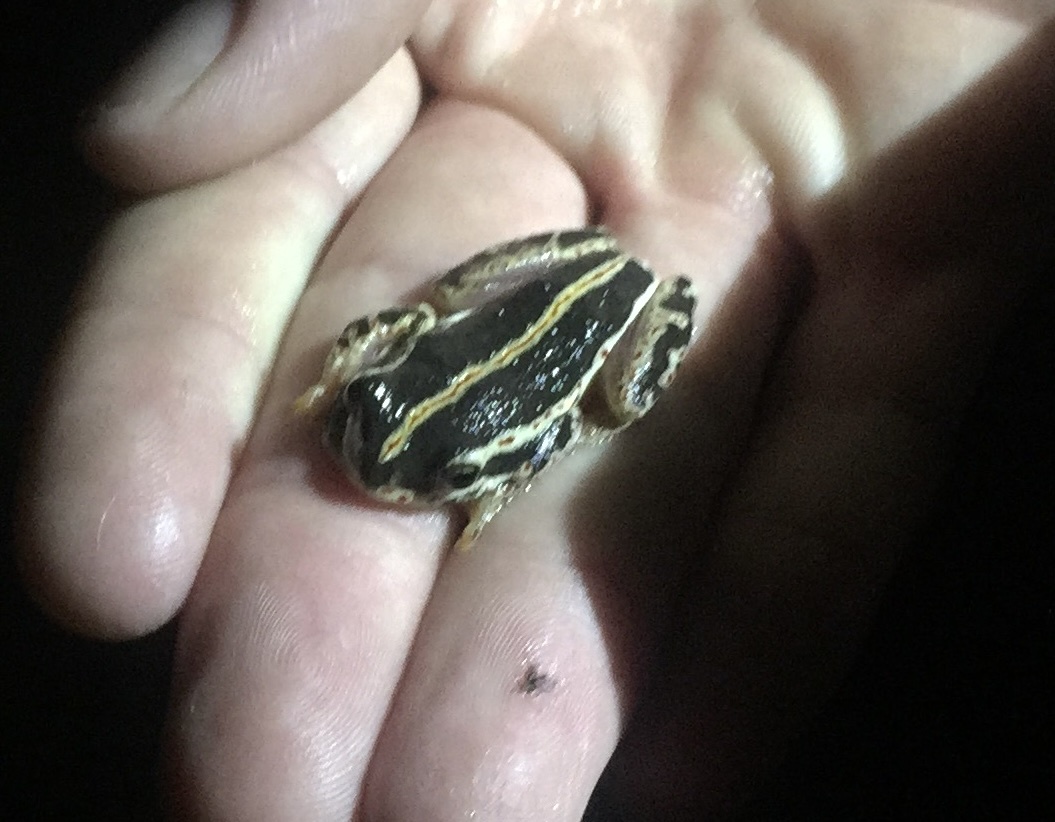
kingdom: Animalia
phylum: Chordata
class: Amphibia
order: Anura
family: Hyperoliidae
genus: Hyperolius
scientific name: Hyperolius marmoratus
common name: Painted reed frog
